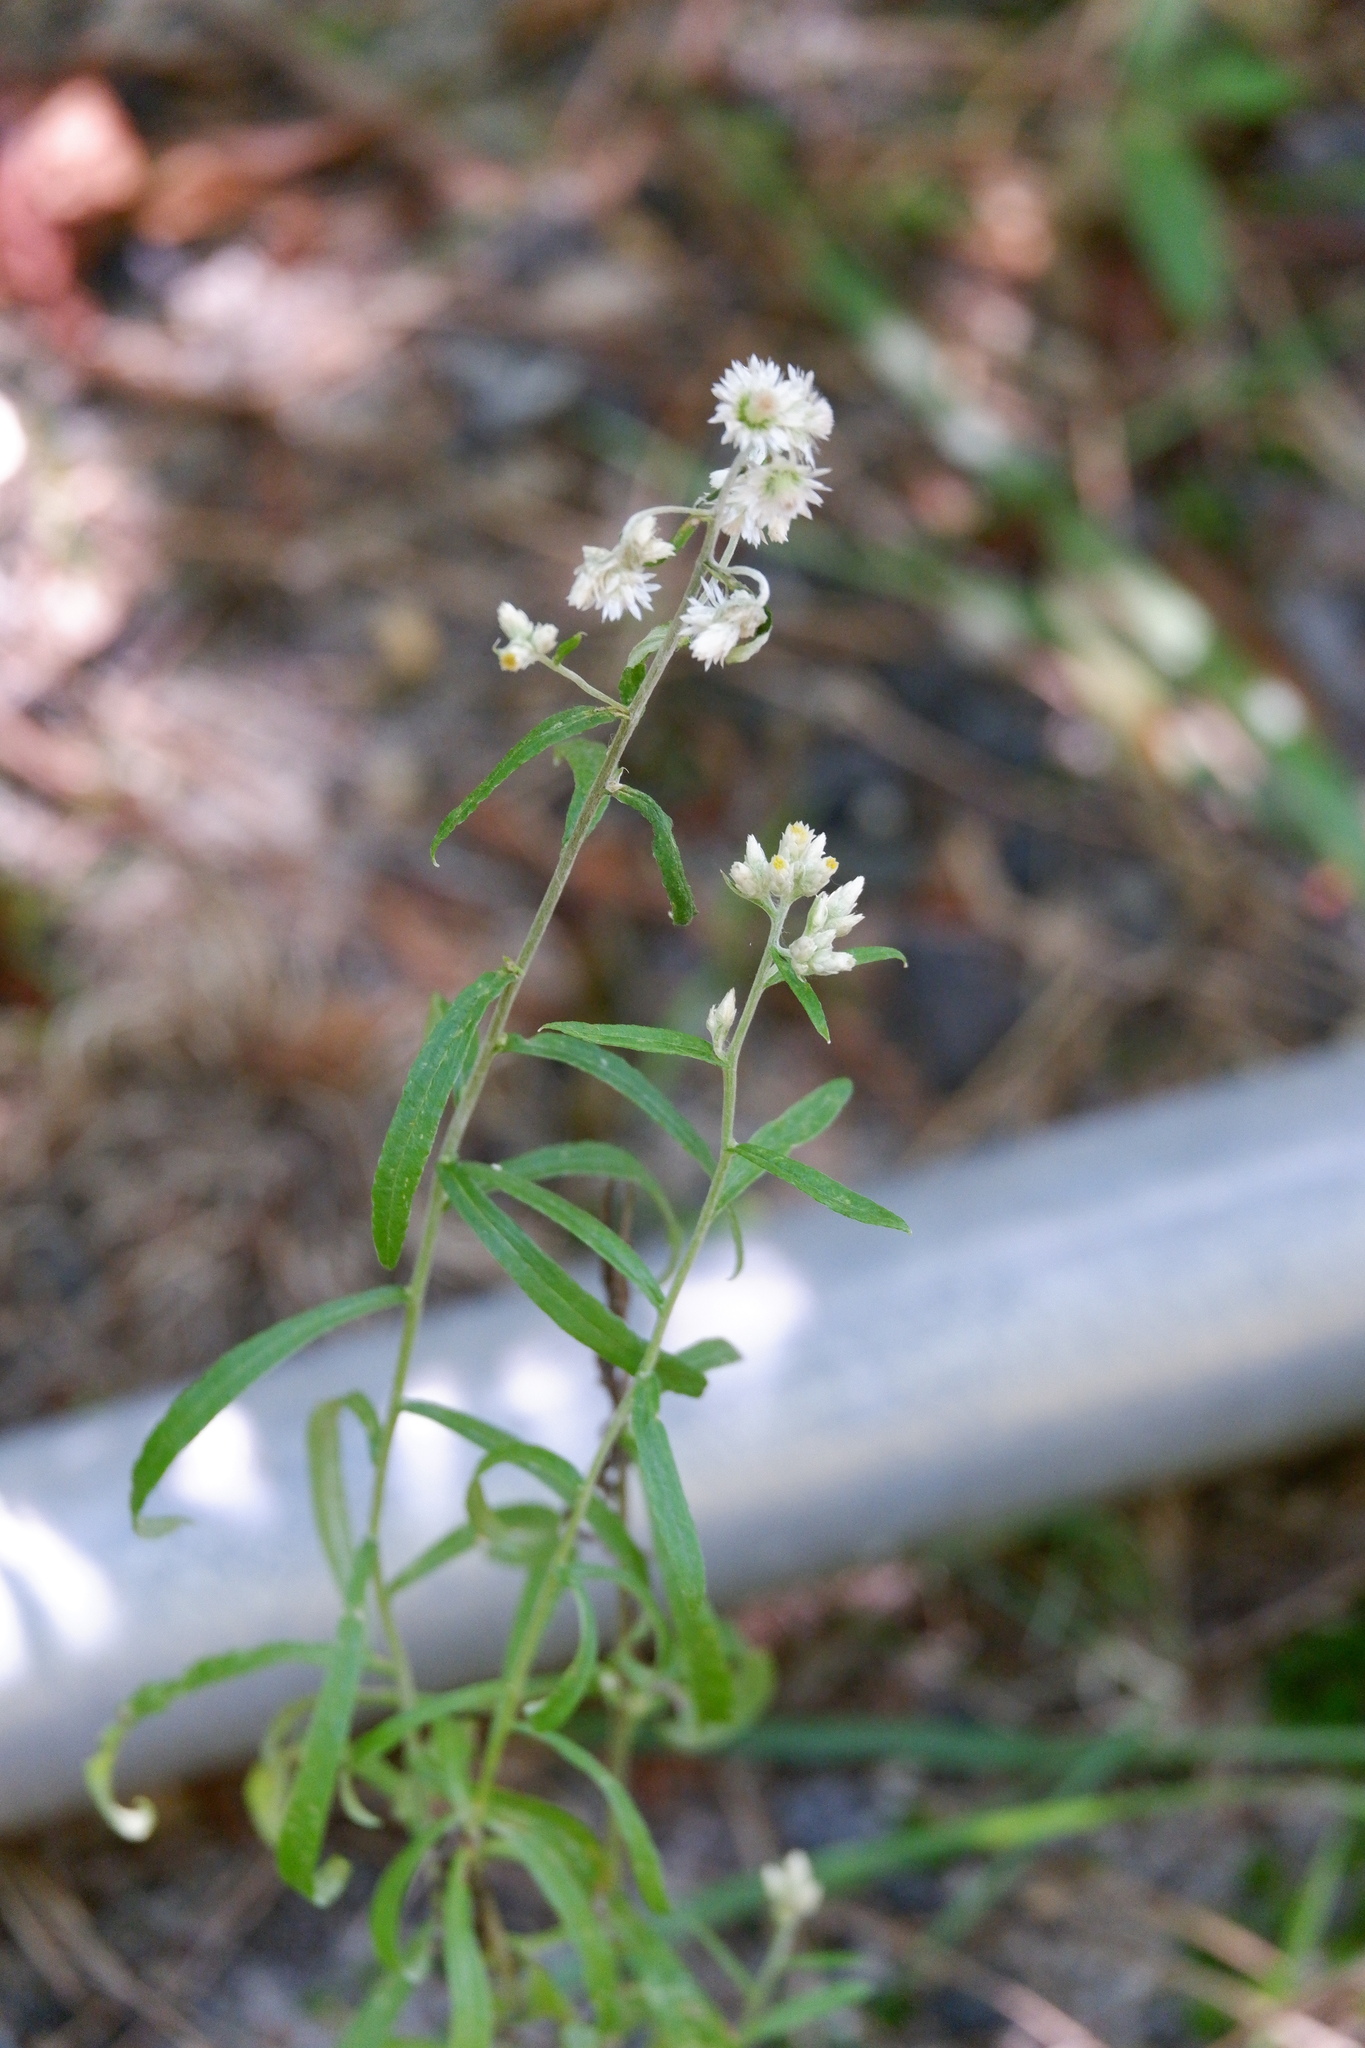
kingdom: Plantae
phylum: Tracheophyta
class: Magnoliopsida
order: Asterales
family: Asteraceae
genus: Pseudognaphalium
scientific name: Pseudognaphalium obtusifolium
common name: Eastern rabbit-tobacco
